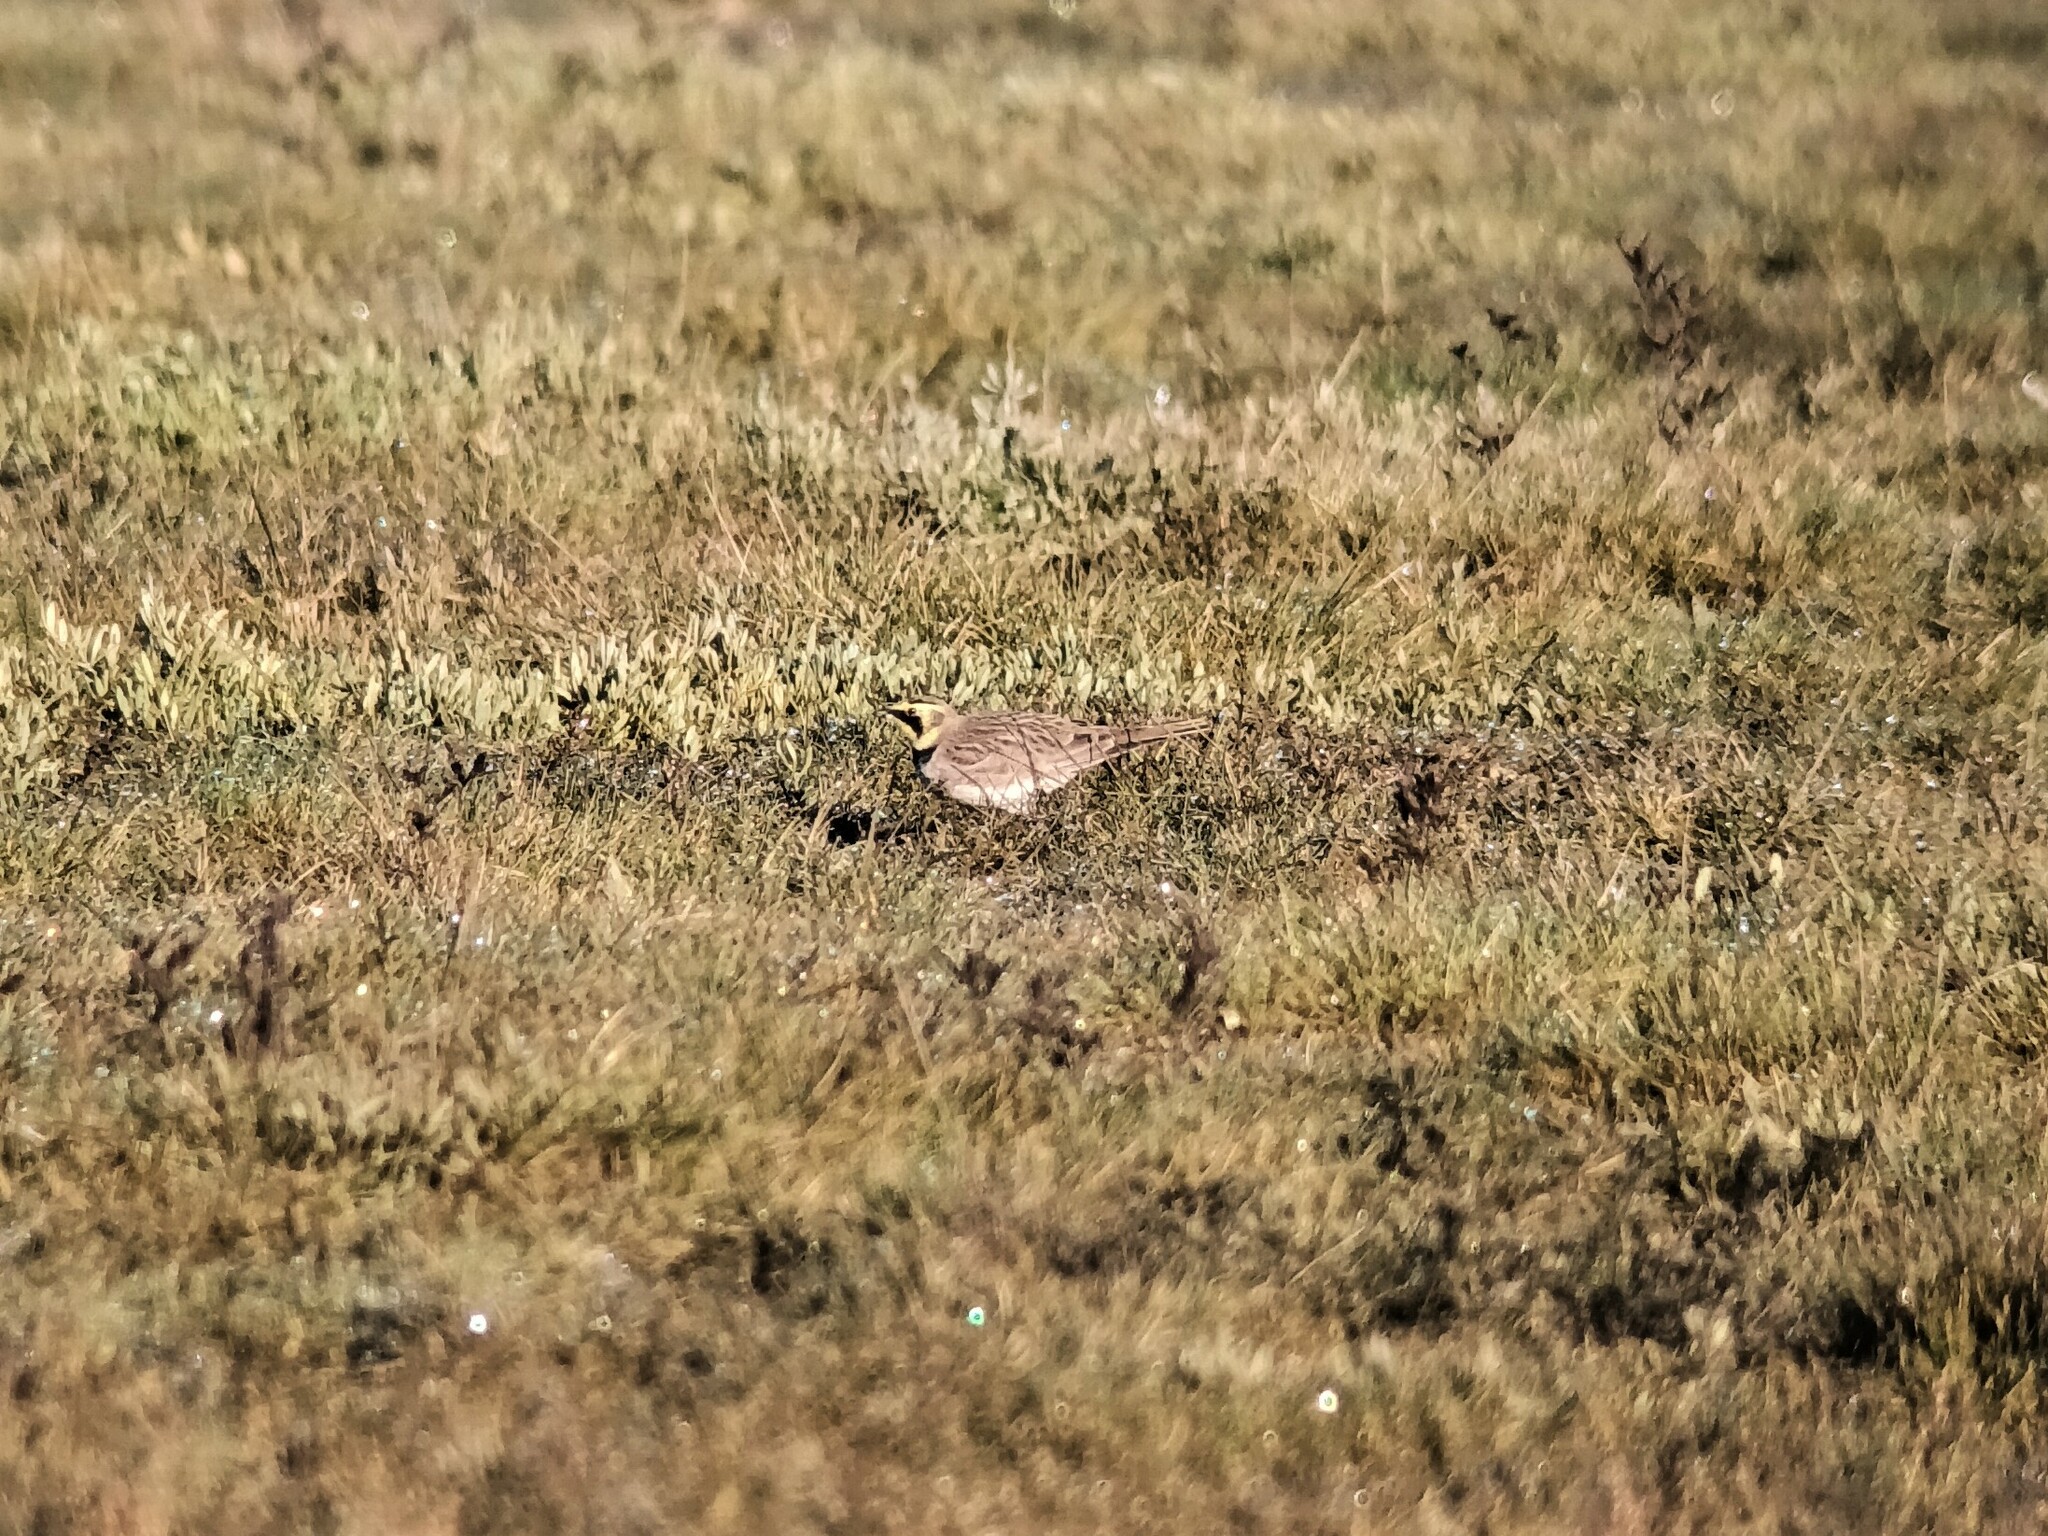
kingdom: Animalia
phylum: Chordata
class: Aves
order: Passeriformes
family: Alaudidae
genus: Eremophila
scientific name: Eremophila alpestris
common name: Horned lark
